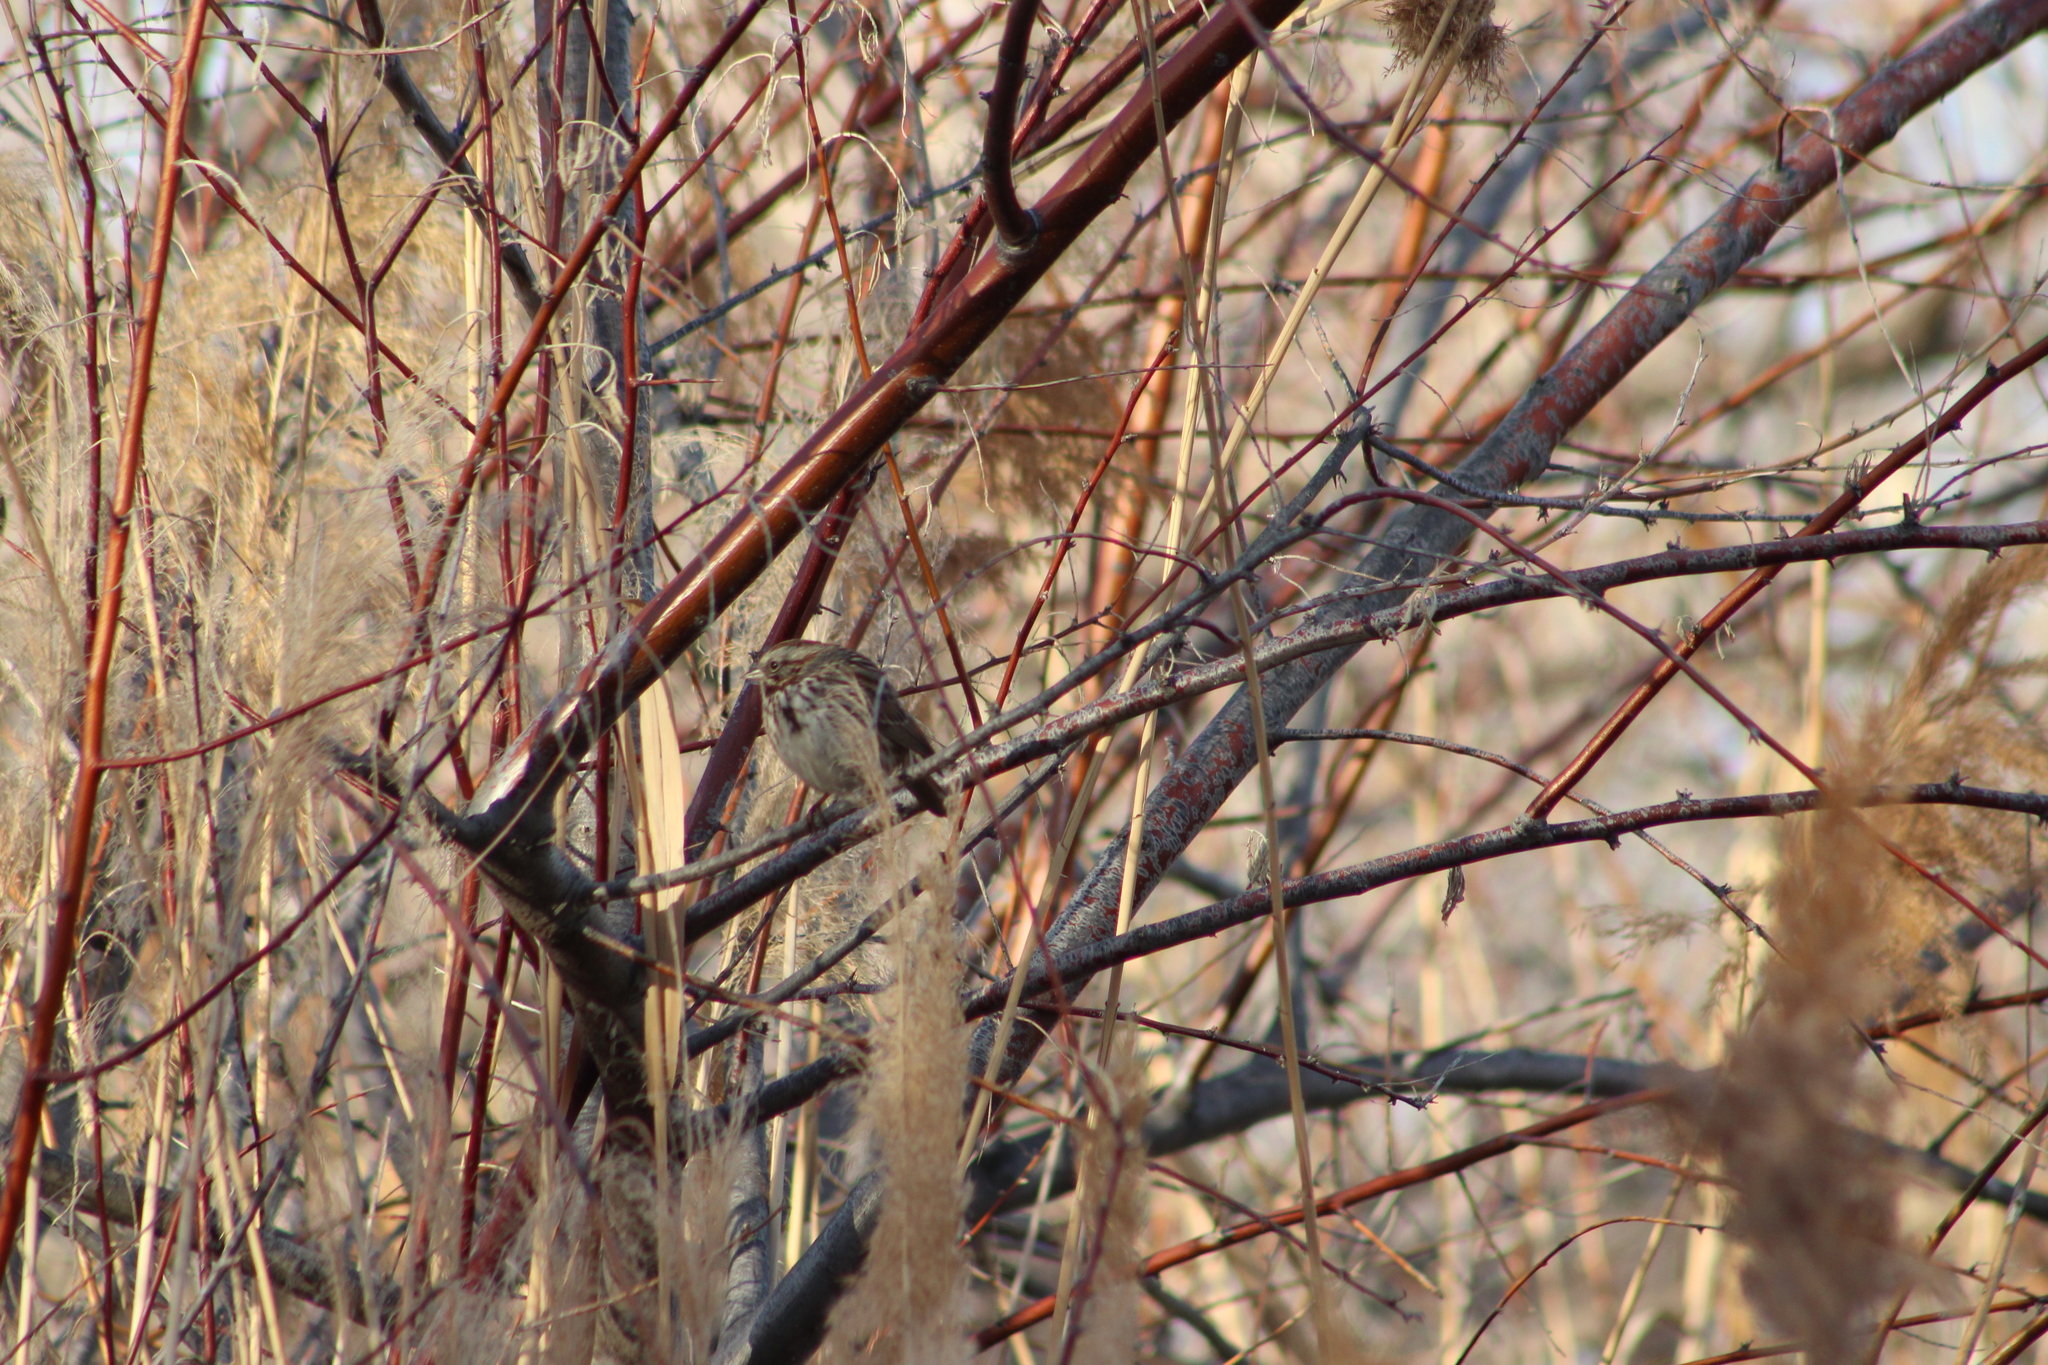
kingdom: Animalia
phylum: Chordata
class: Aves
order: Passeriformes
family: Passerellidae
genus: Melospiza
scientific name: Melospiza melodia
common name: Song sparrow
